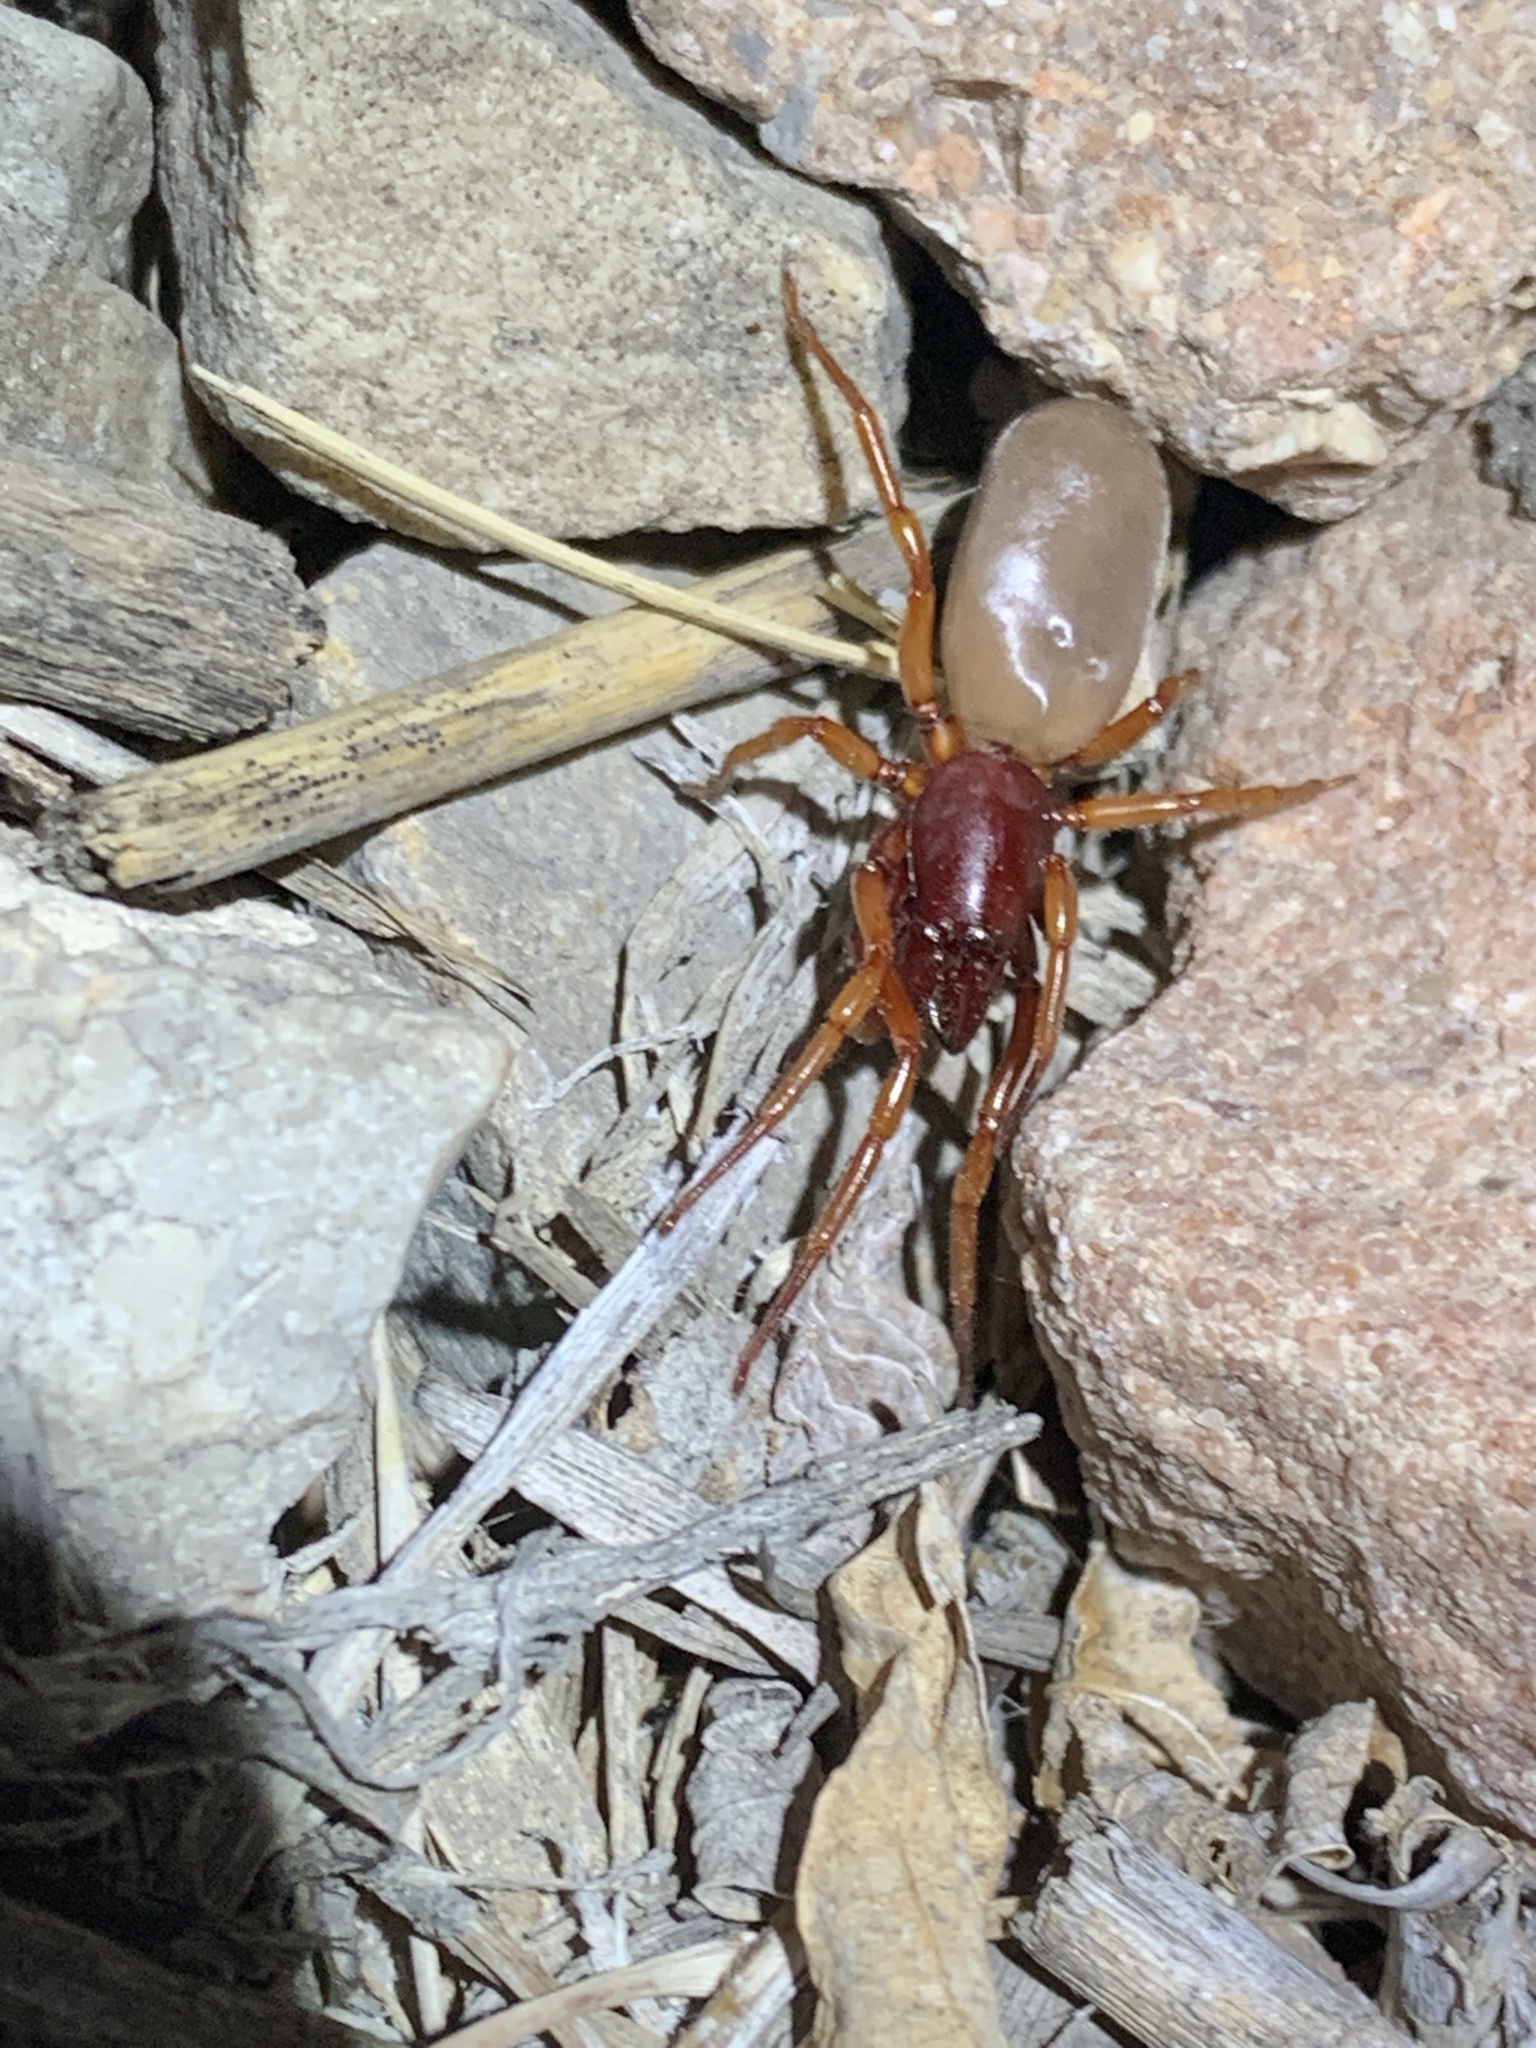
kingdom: Animalia
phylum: Arthropoda
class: Arachnida
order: Araneae
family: Dysderidae
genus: Dysdera
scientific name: Dysdera crocata
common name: Woodlouse spider
